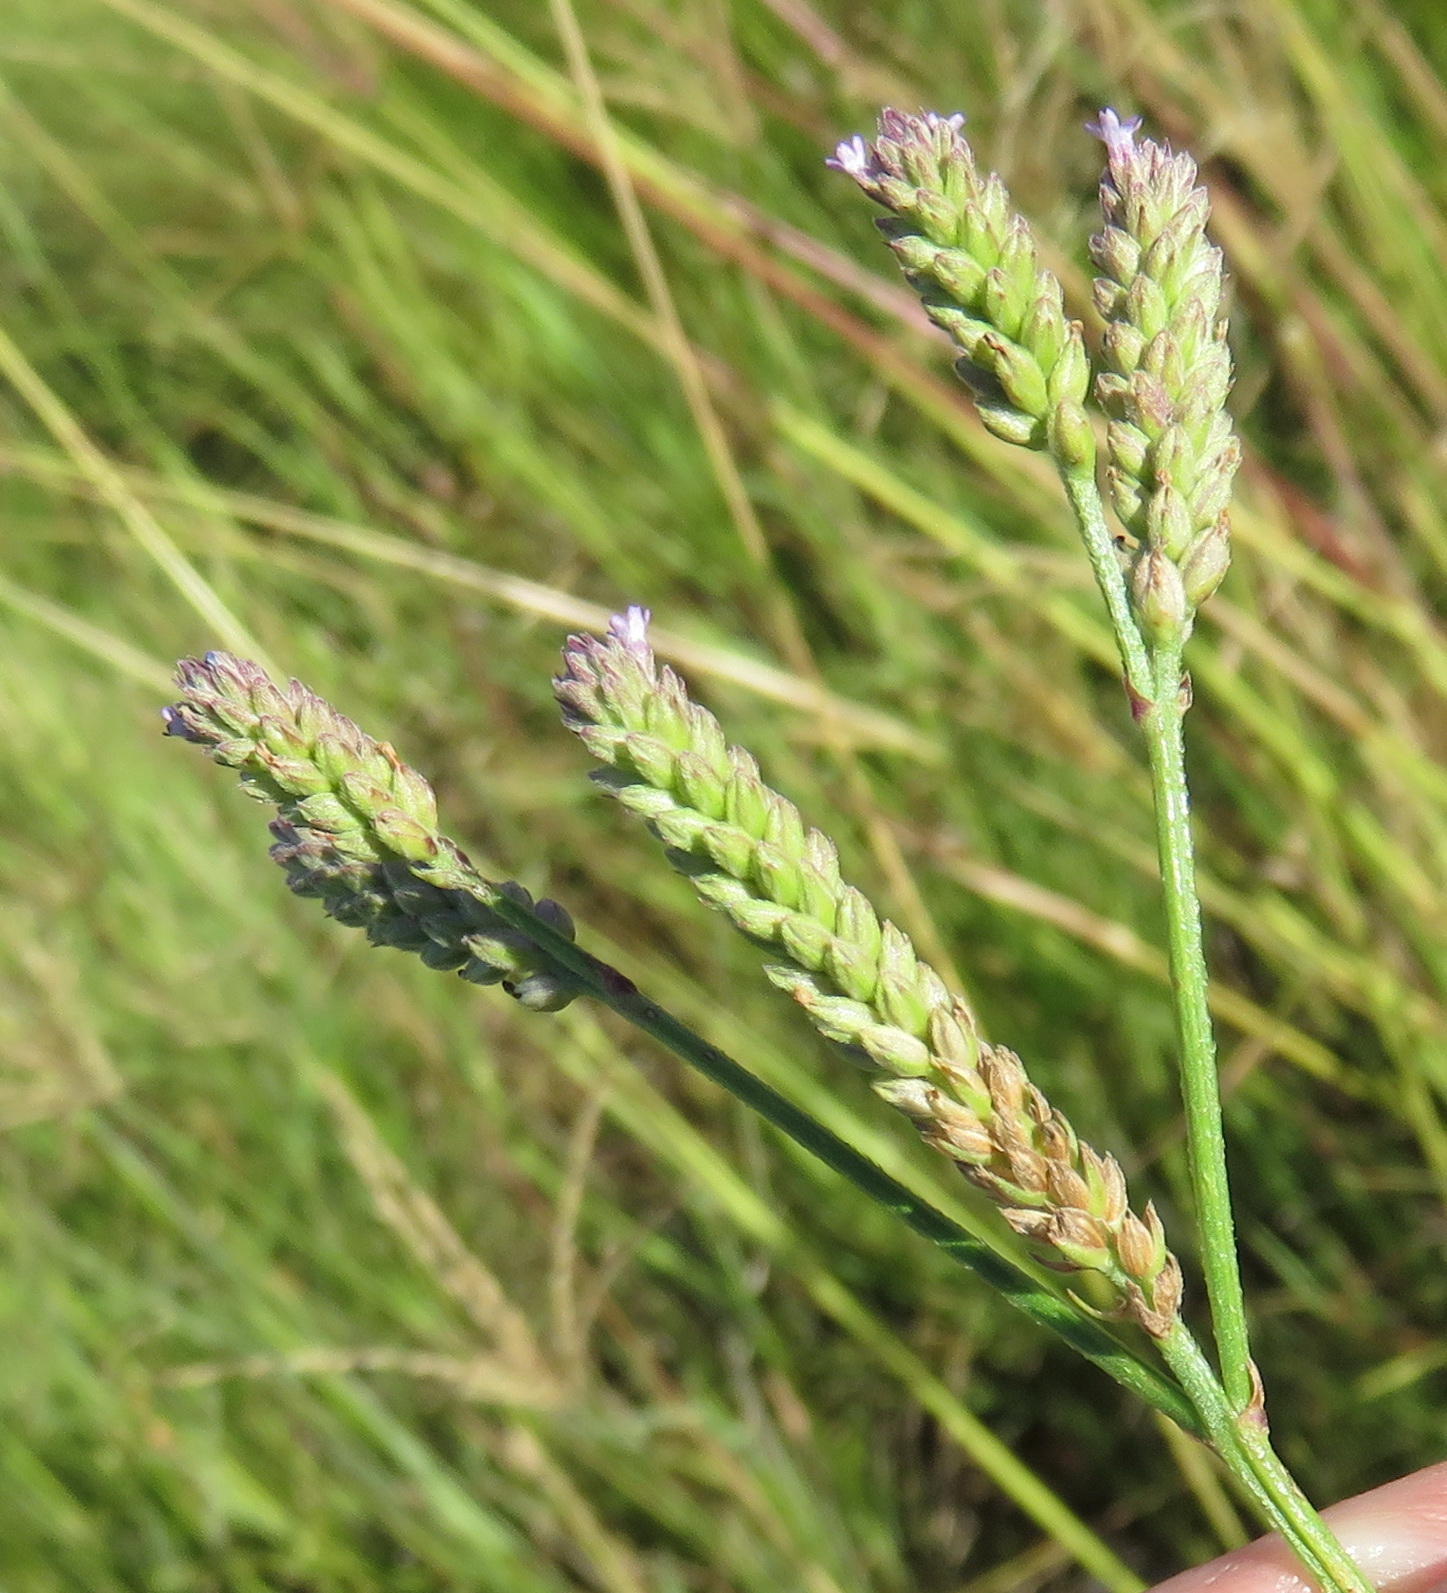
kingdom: Plantae
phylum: Tracheophyta
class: Magnoliopsida
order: Lamiales
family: Verbenaceae
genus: Verbena
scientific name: Verbena brasiliensis
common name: Brazilian vervain
